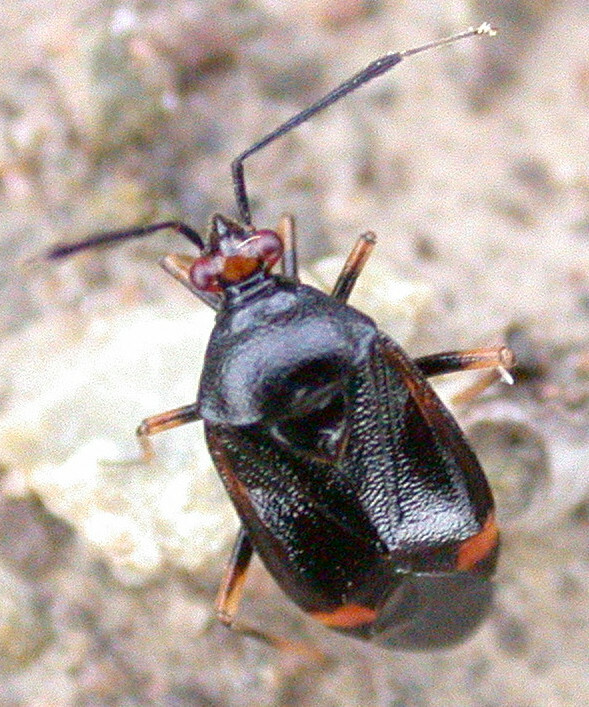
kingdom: Animalia
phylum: Arthropoda
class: Insecta
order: Hemiptera
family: Miridae
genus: Deraeocoris
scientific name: Deraeocoris ruber
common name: Plant bug
